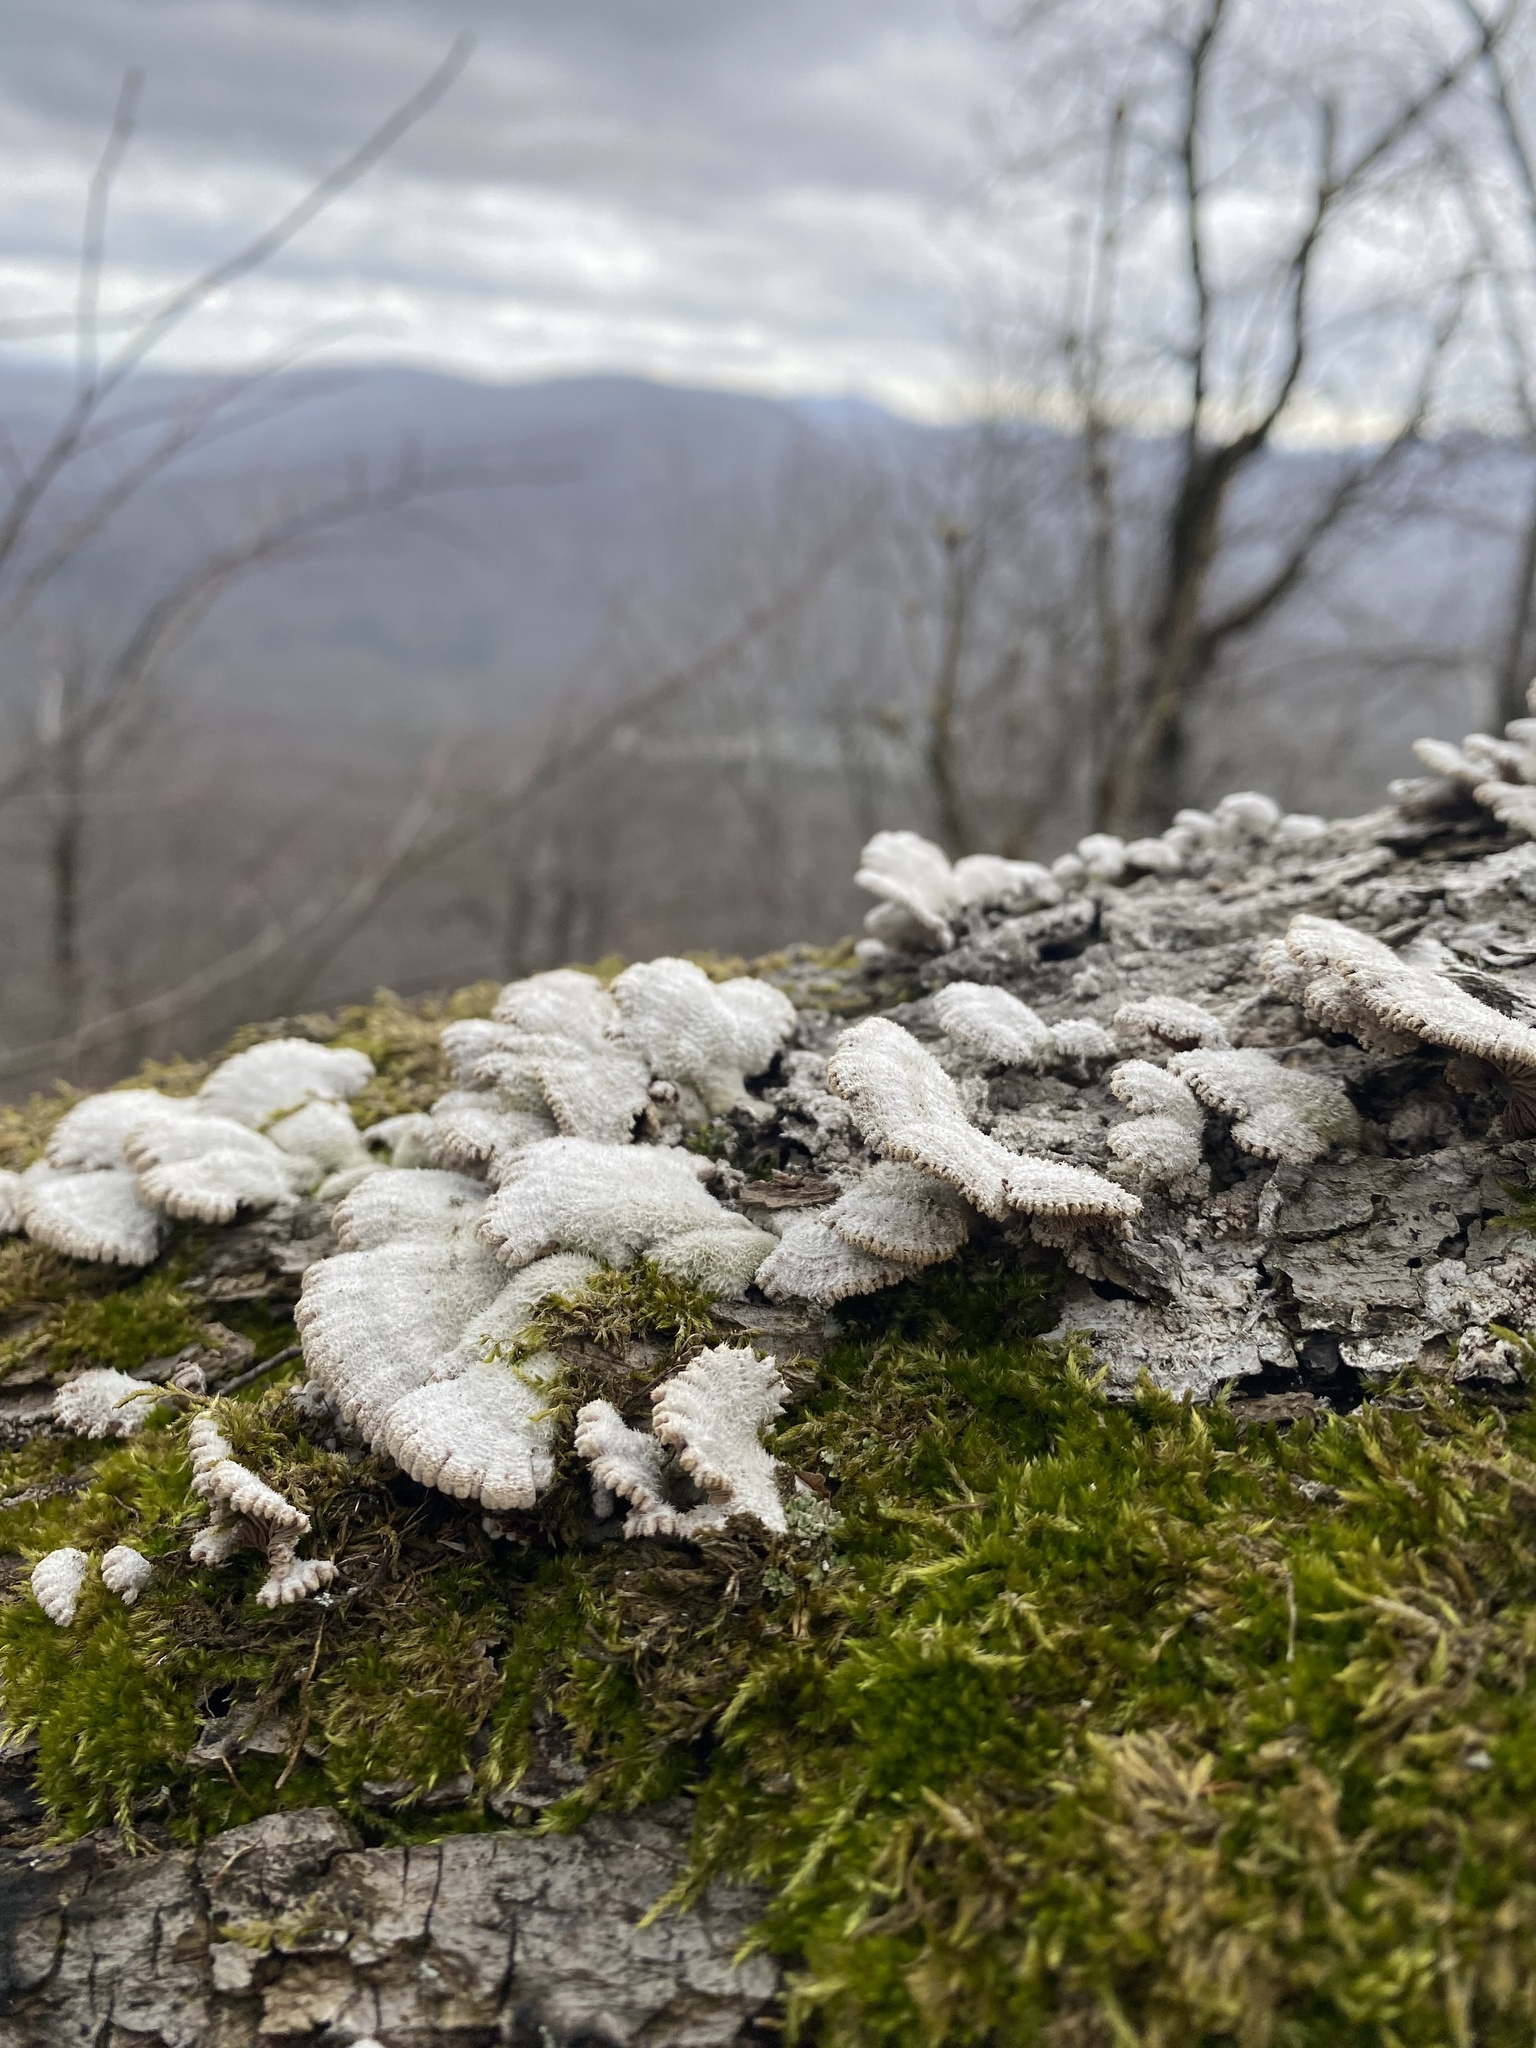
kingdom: Fungi
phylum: Basidiomycota
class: Agaricomycetes
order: Agaricales
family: Schizophyllaceae
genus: Schizophyllum
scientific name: Schizophyllum commune
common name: Common porecrust
